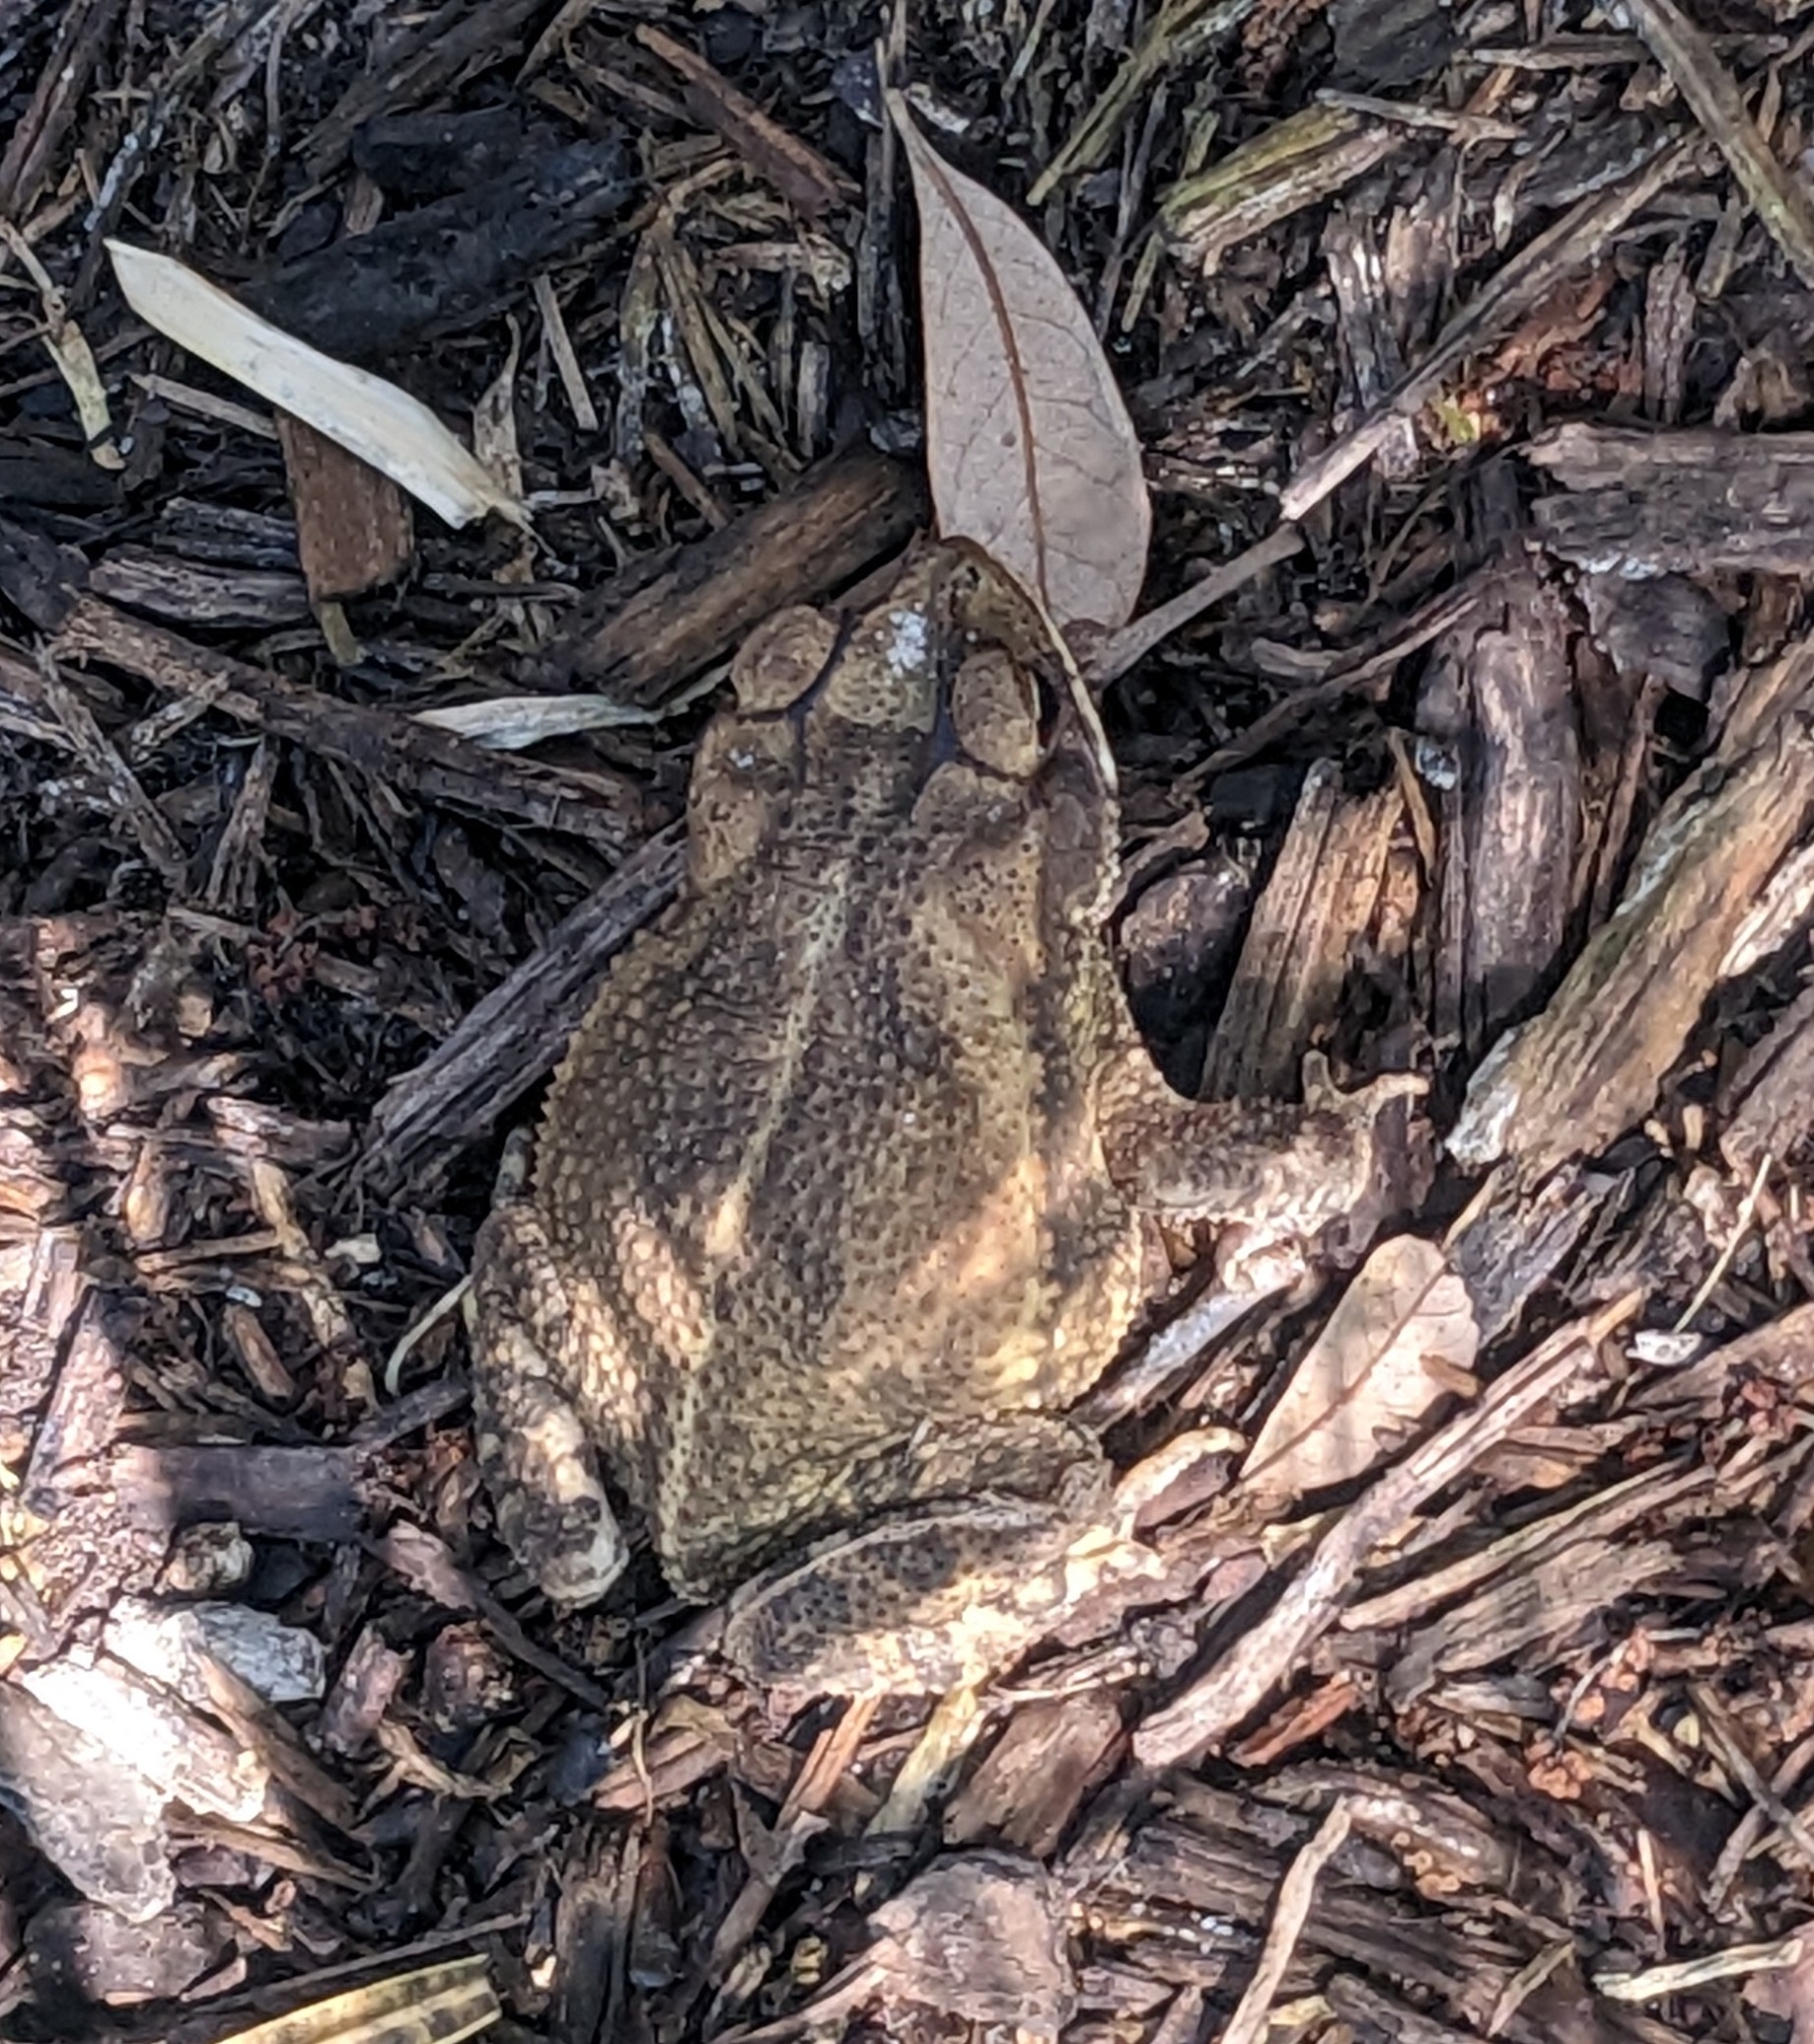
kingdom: Animalia
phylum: Chordata
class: Amphibia
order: Anura
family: Bufonidae
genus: Incilius
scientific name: Incilius nebulifer
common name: Gulf coast toad
